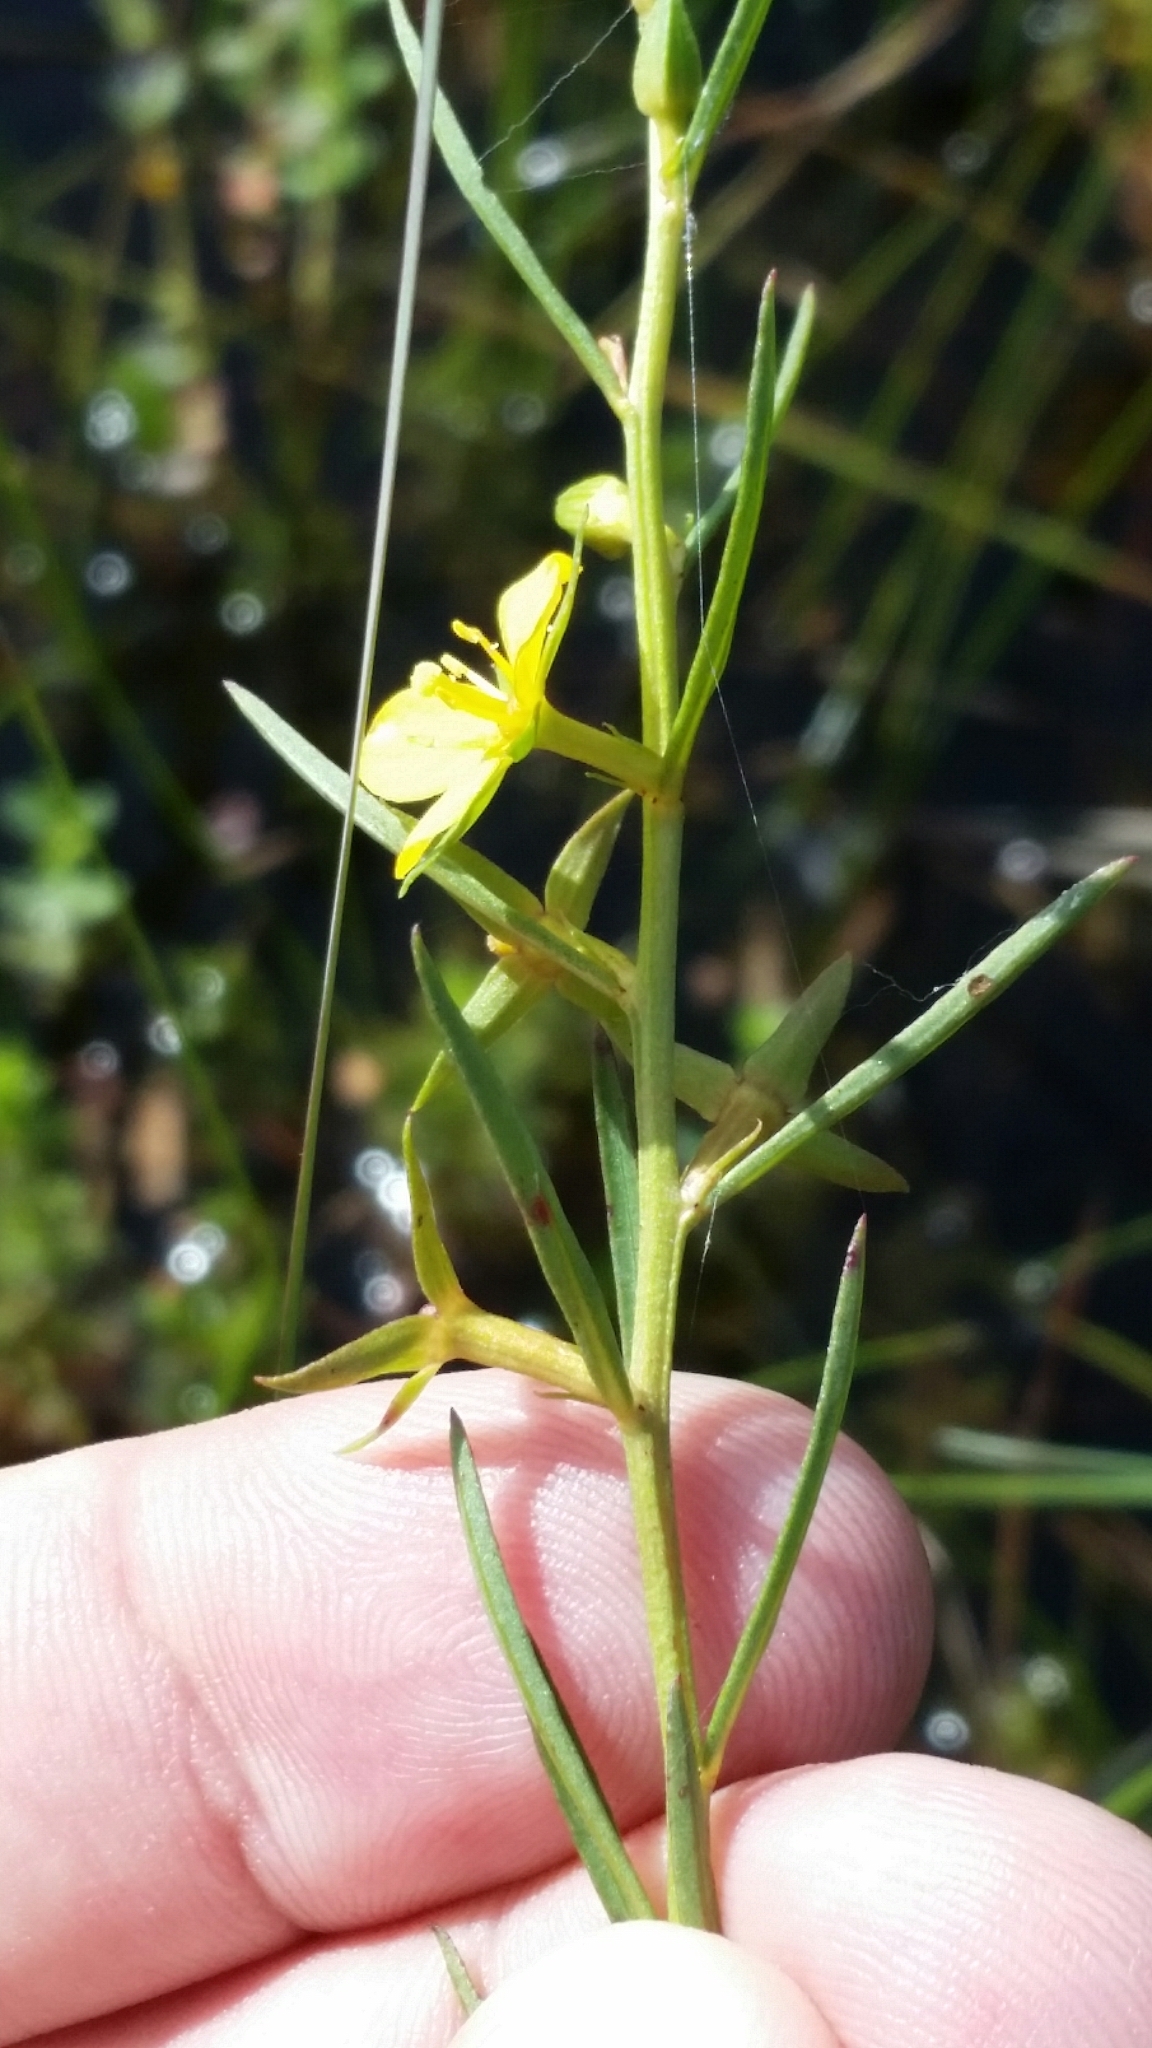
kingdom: Plantae
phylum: Tracheophyta
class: Magnoliopsida
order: Myrtales
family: Onagraceae
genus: Ludwigia
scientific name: Ludwigia linifolia
